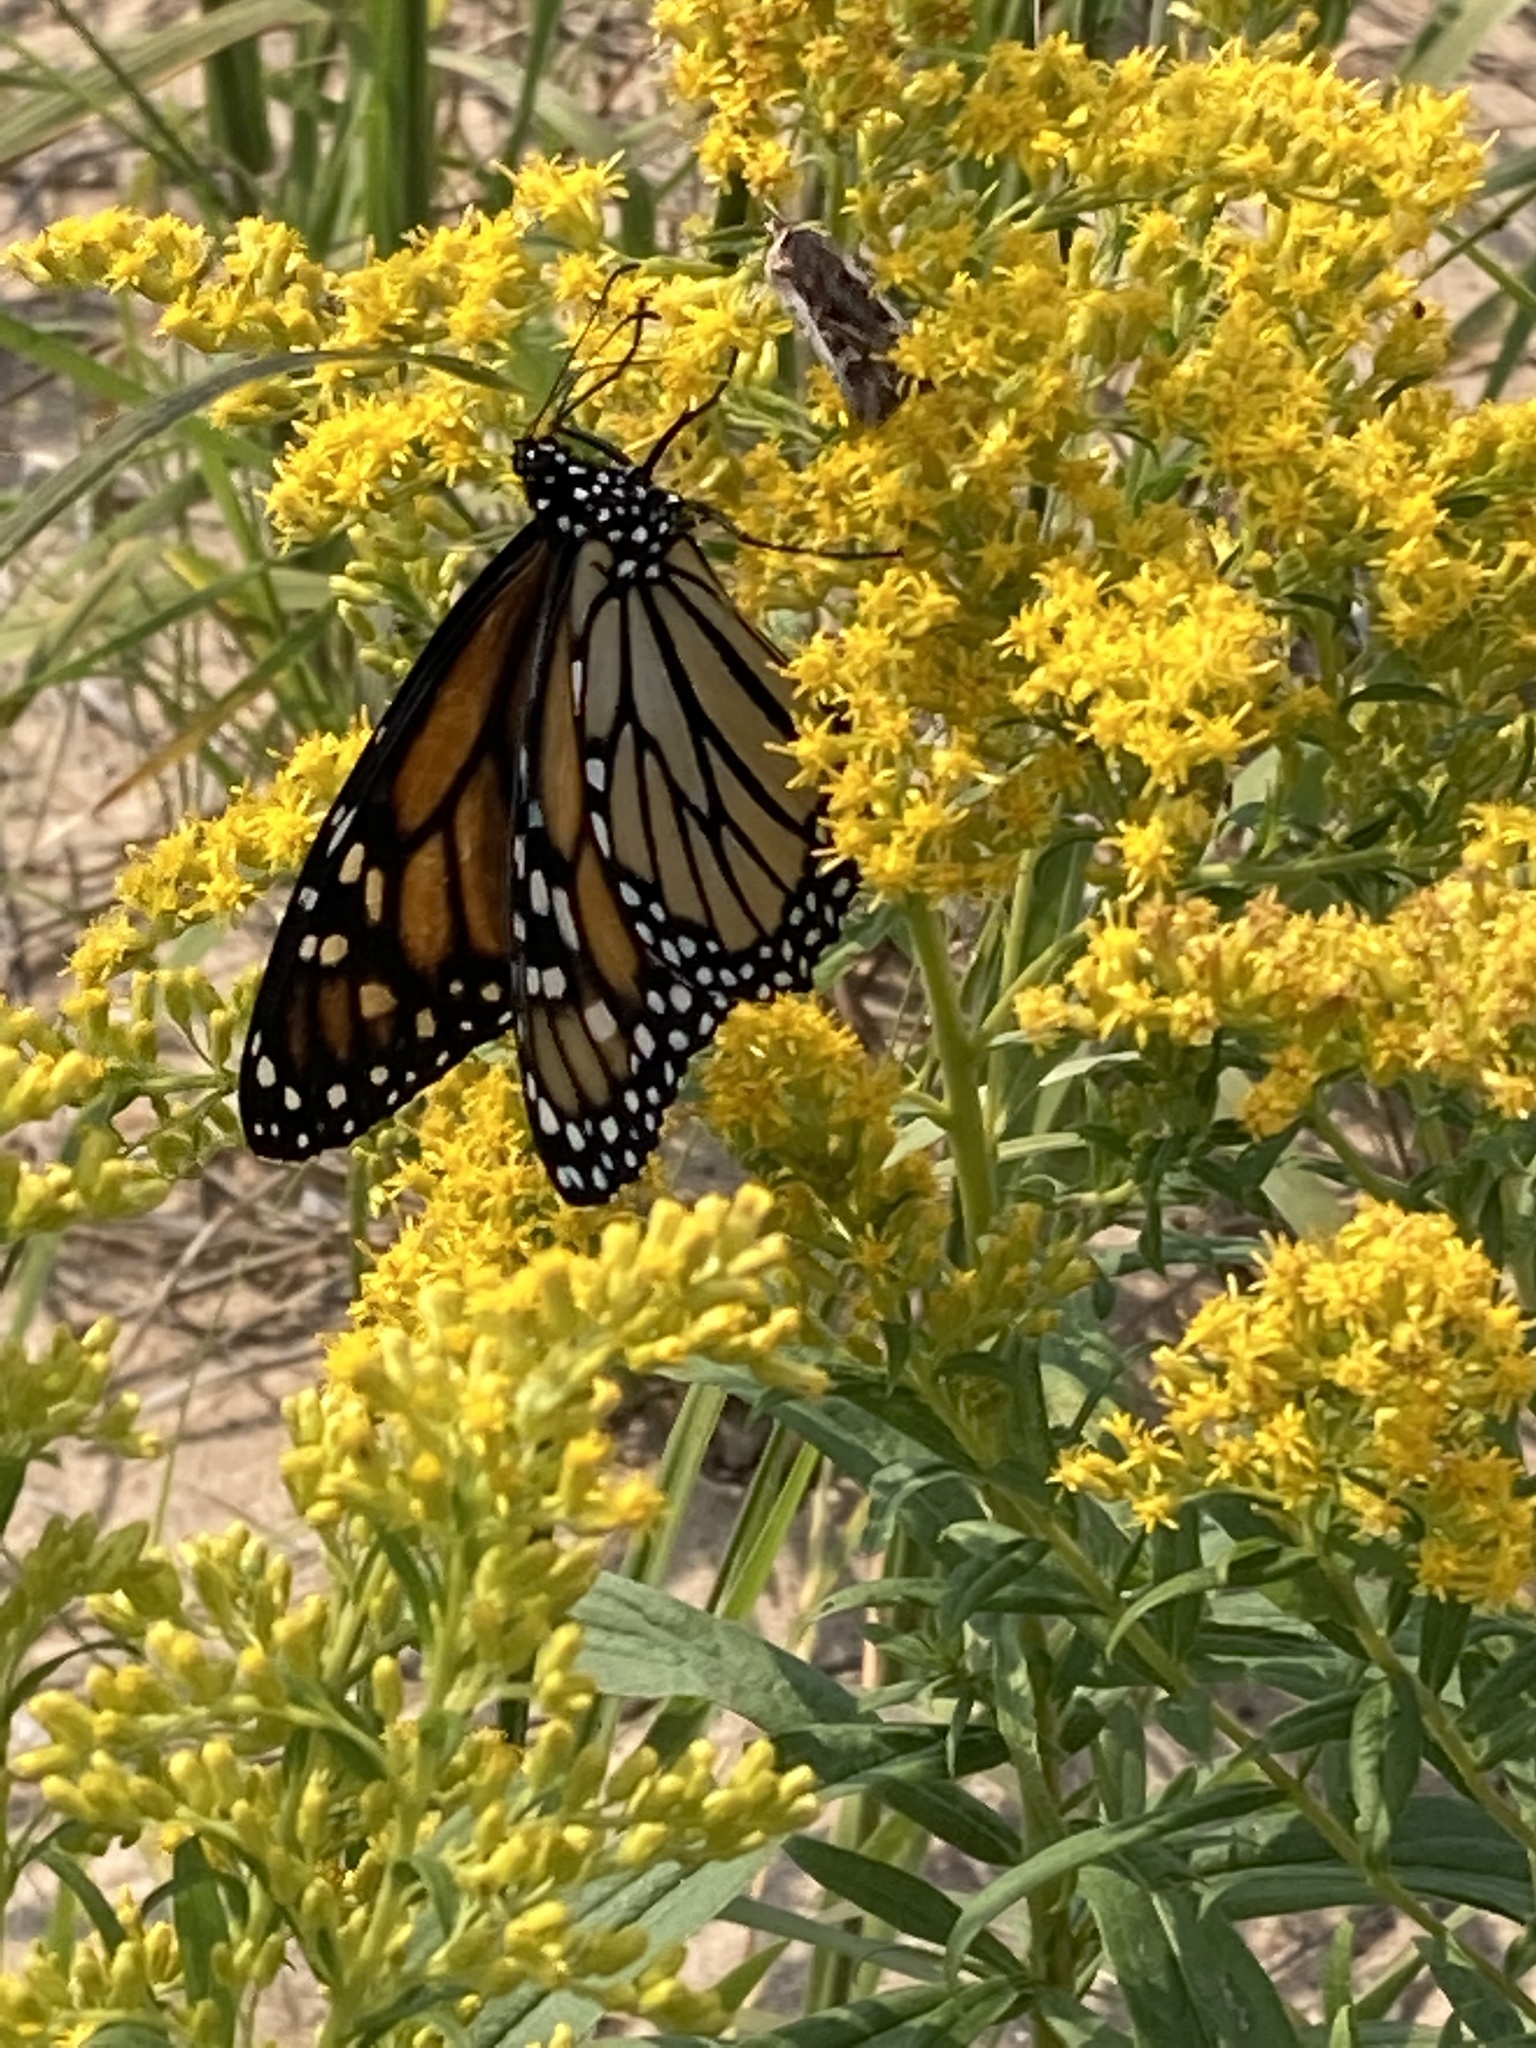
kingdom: Animalia
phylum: Arthropoda
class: Insecta
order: Lepidoptera
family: Nymphalidae
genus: Danaus
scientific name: Danaus plexippus
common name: Monarch
